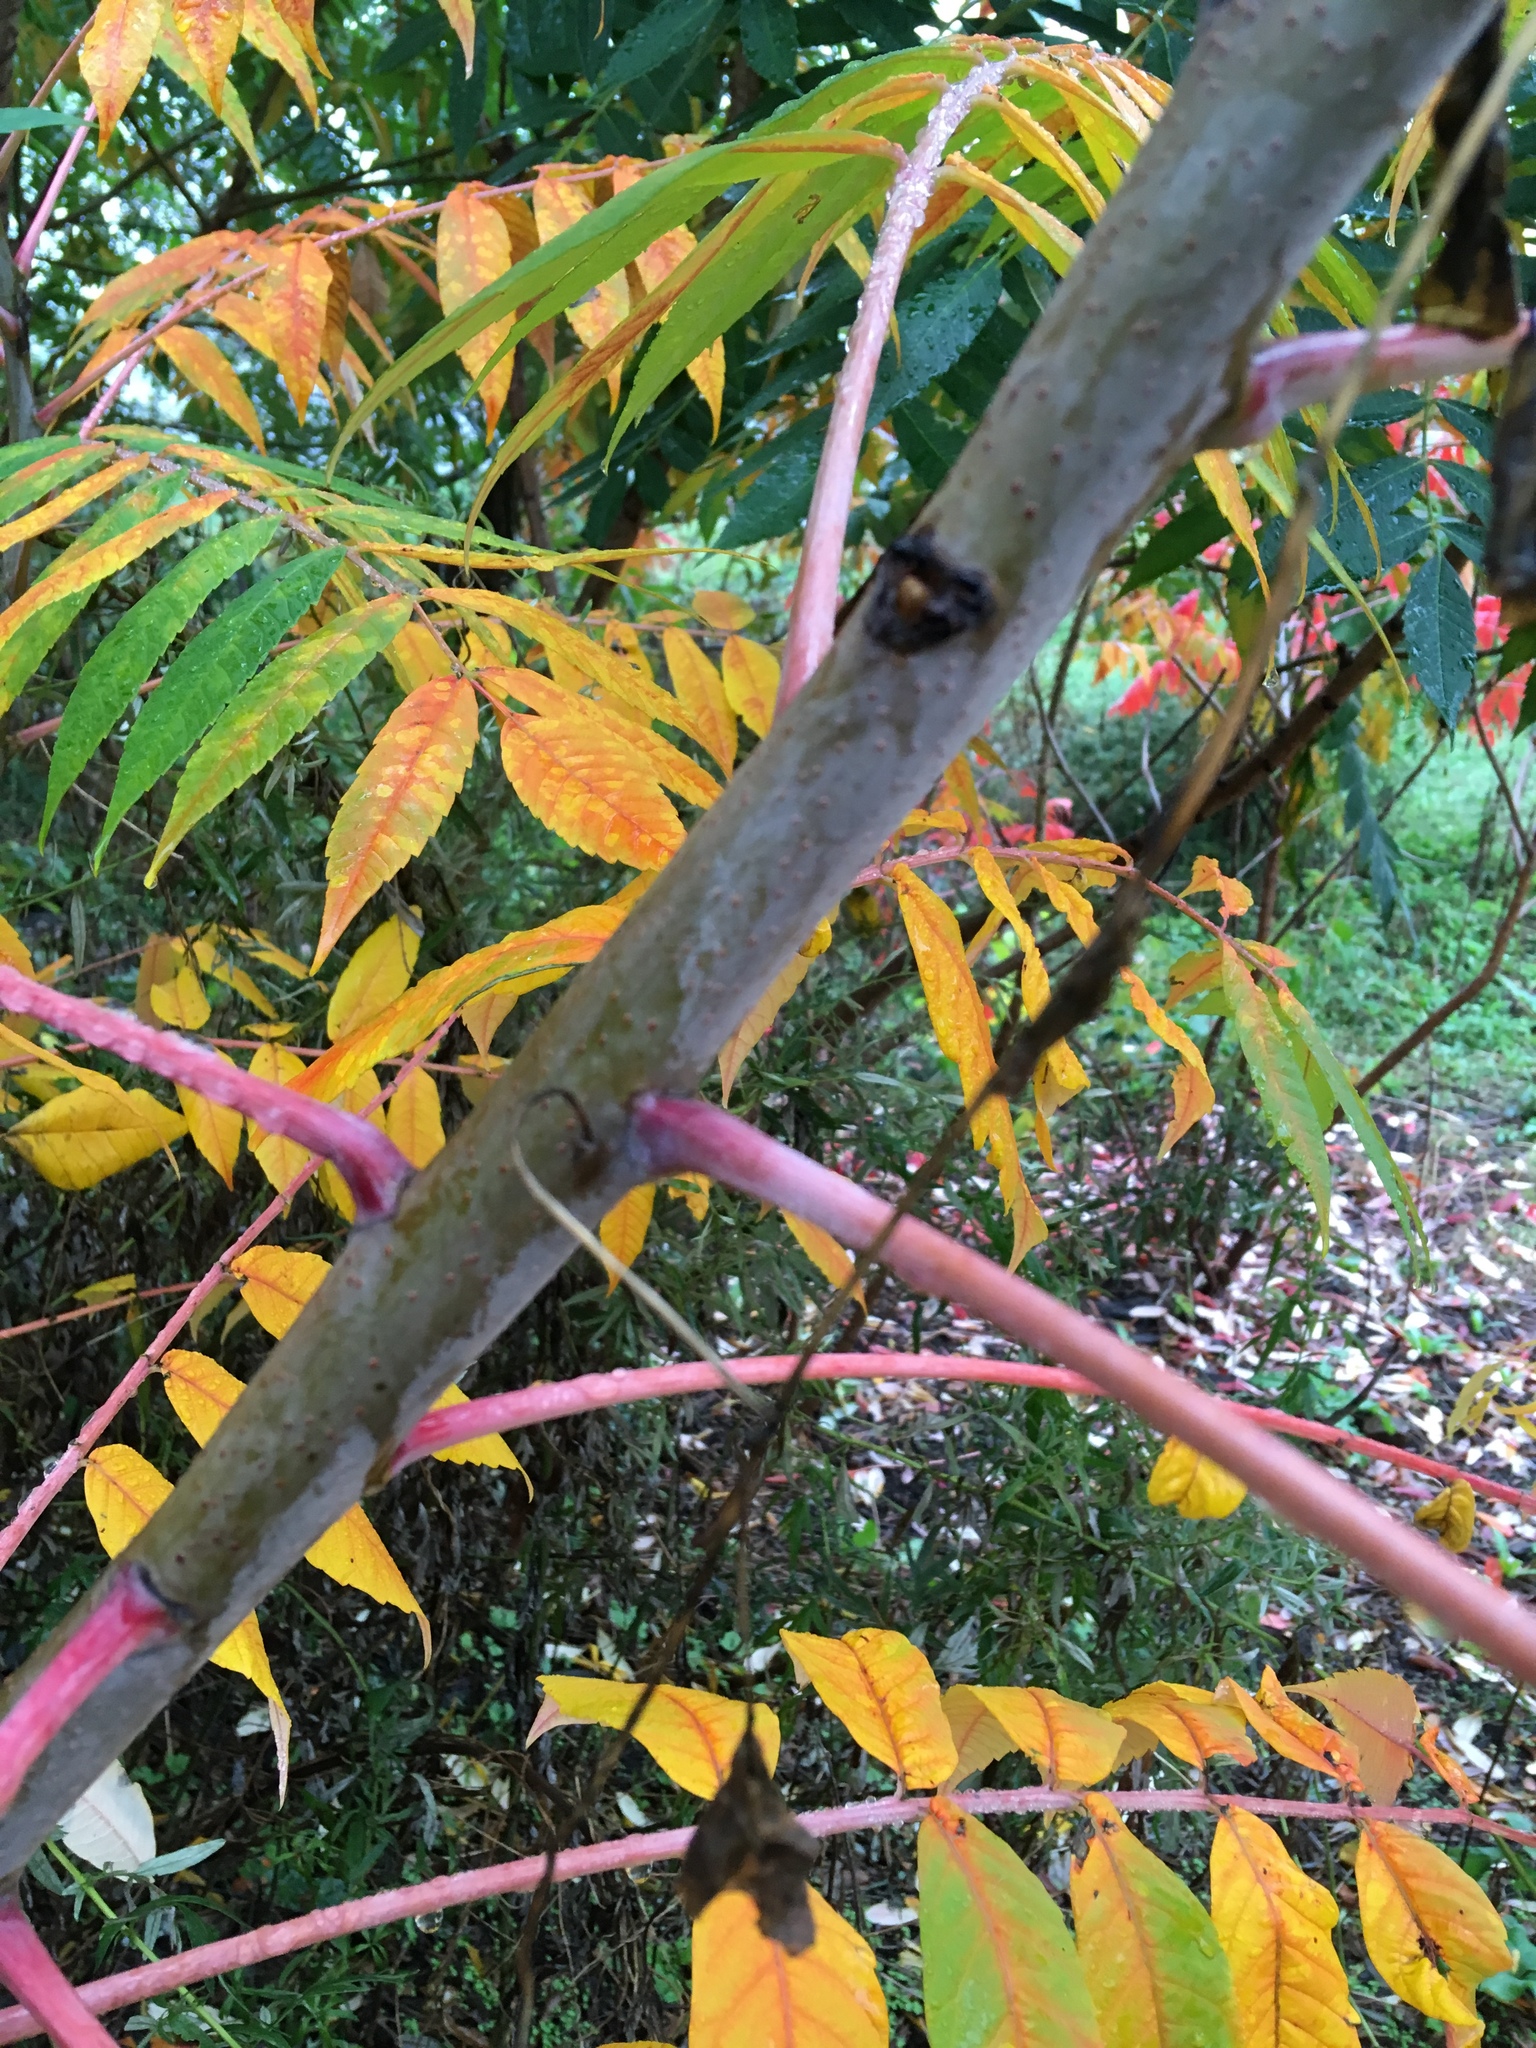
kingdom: Plantae
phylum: Tracheophyta
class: Magnoliopsida
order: Sapindales
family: Anacardiaceae
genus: Rhus
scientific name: Rhus glabra
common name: Scarlet sumac
